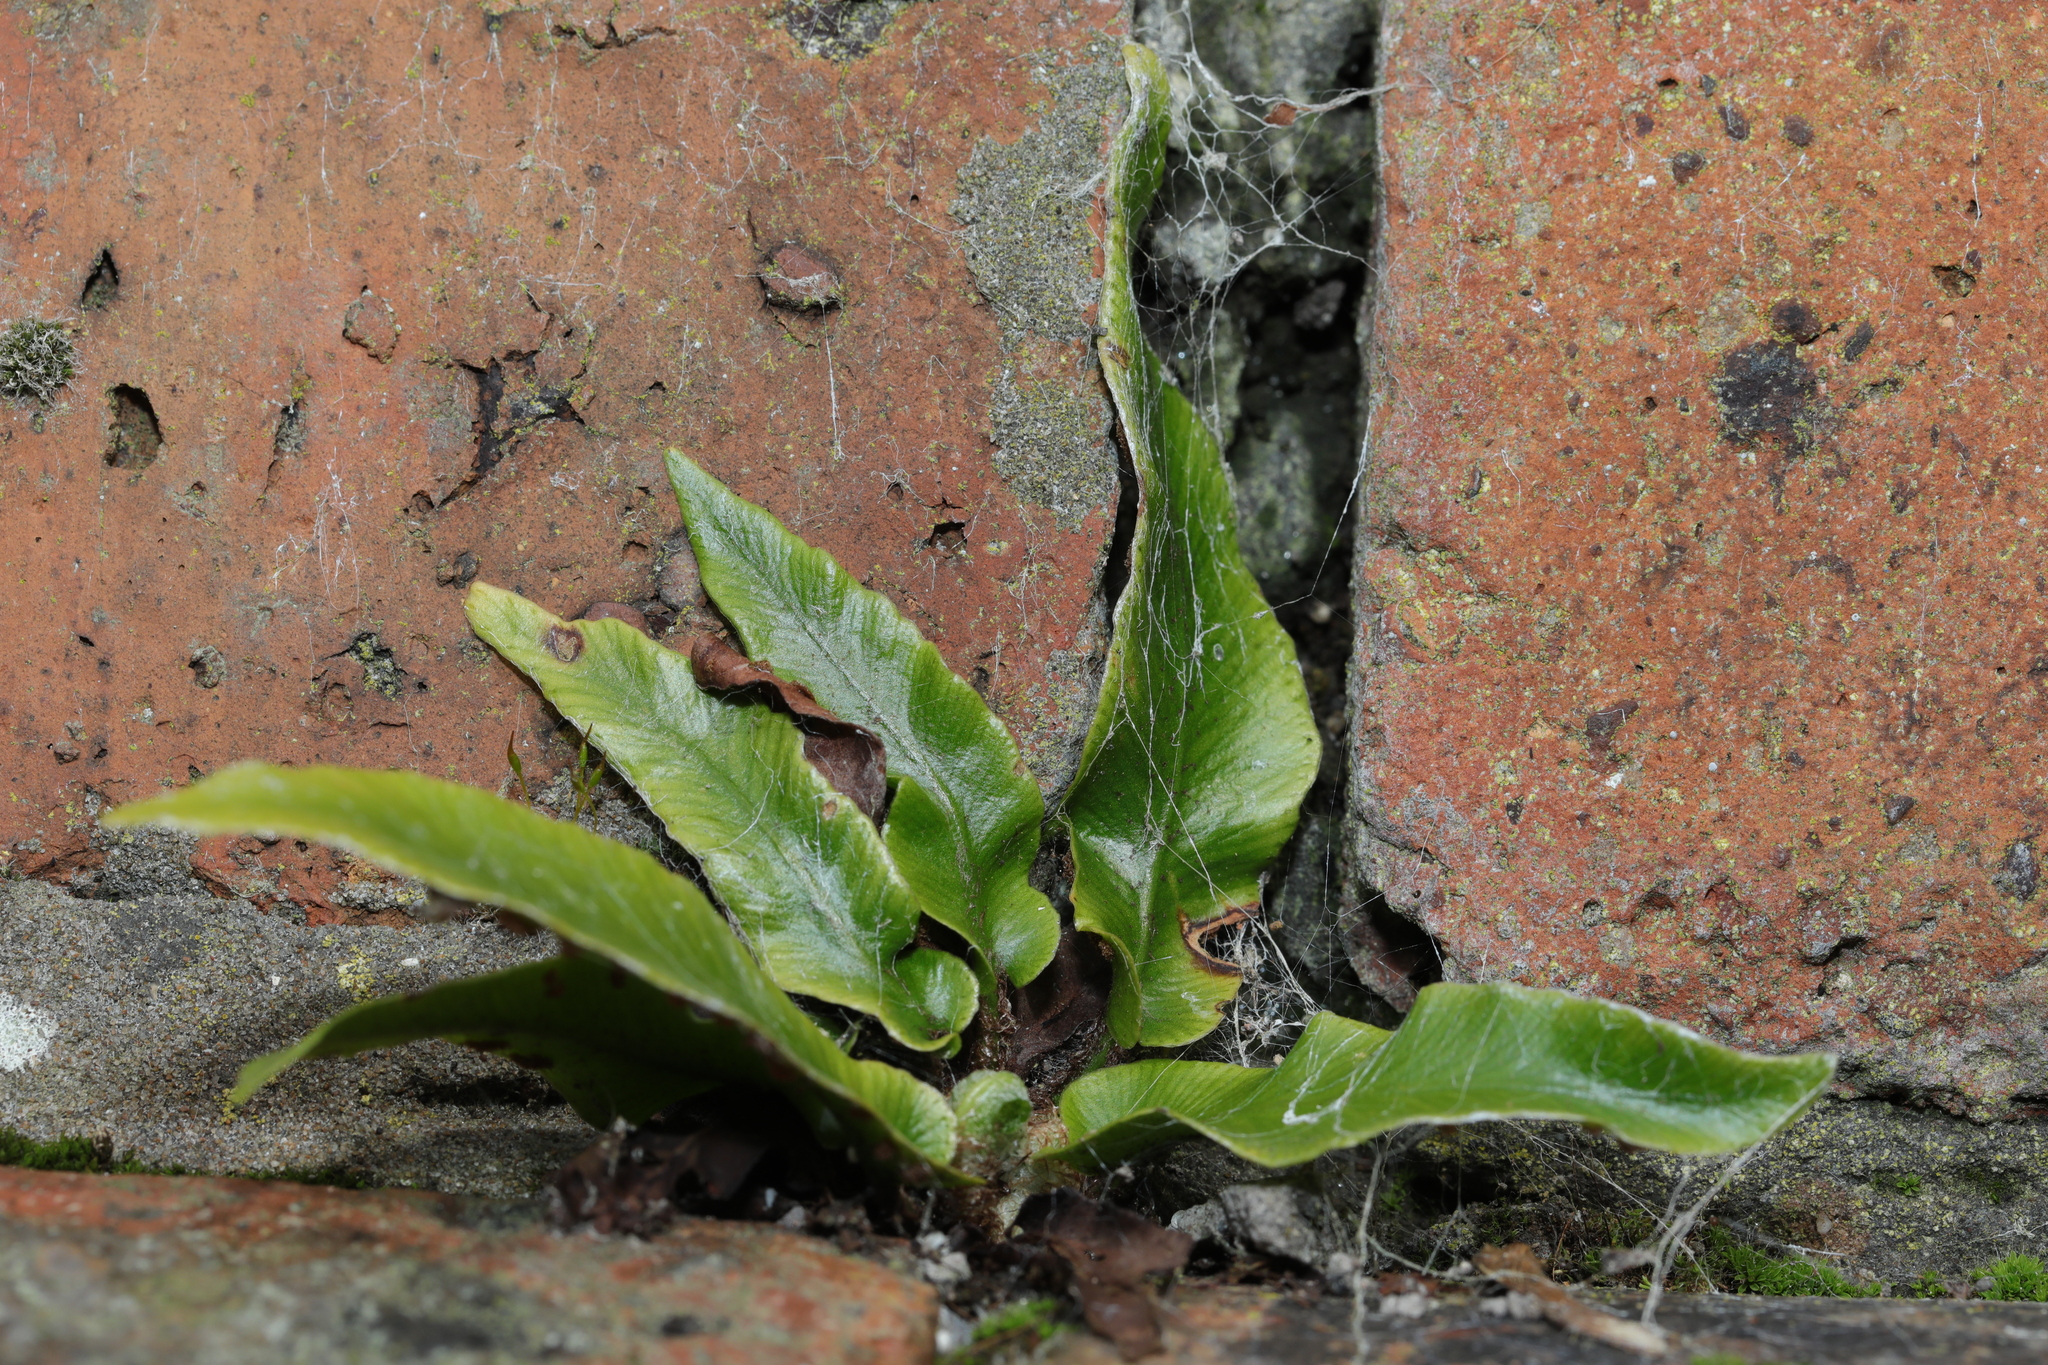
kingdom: Plantae
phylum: Tracheophyta
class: Polypodiopsida
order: Polypodiales
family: Aspleniaceae
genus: Asplenium
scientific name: Asplenium scolopendrium
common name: Hart's-tongue fern
